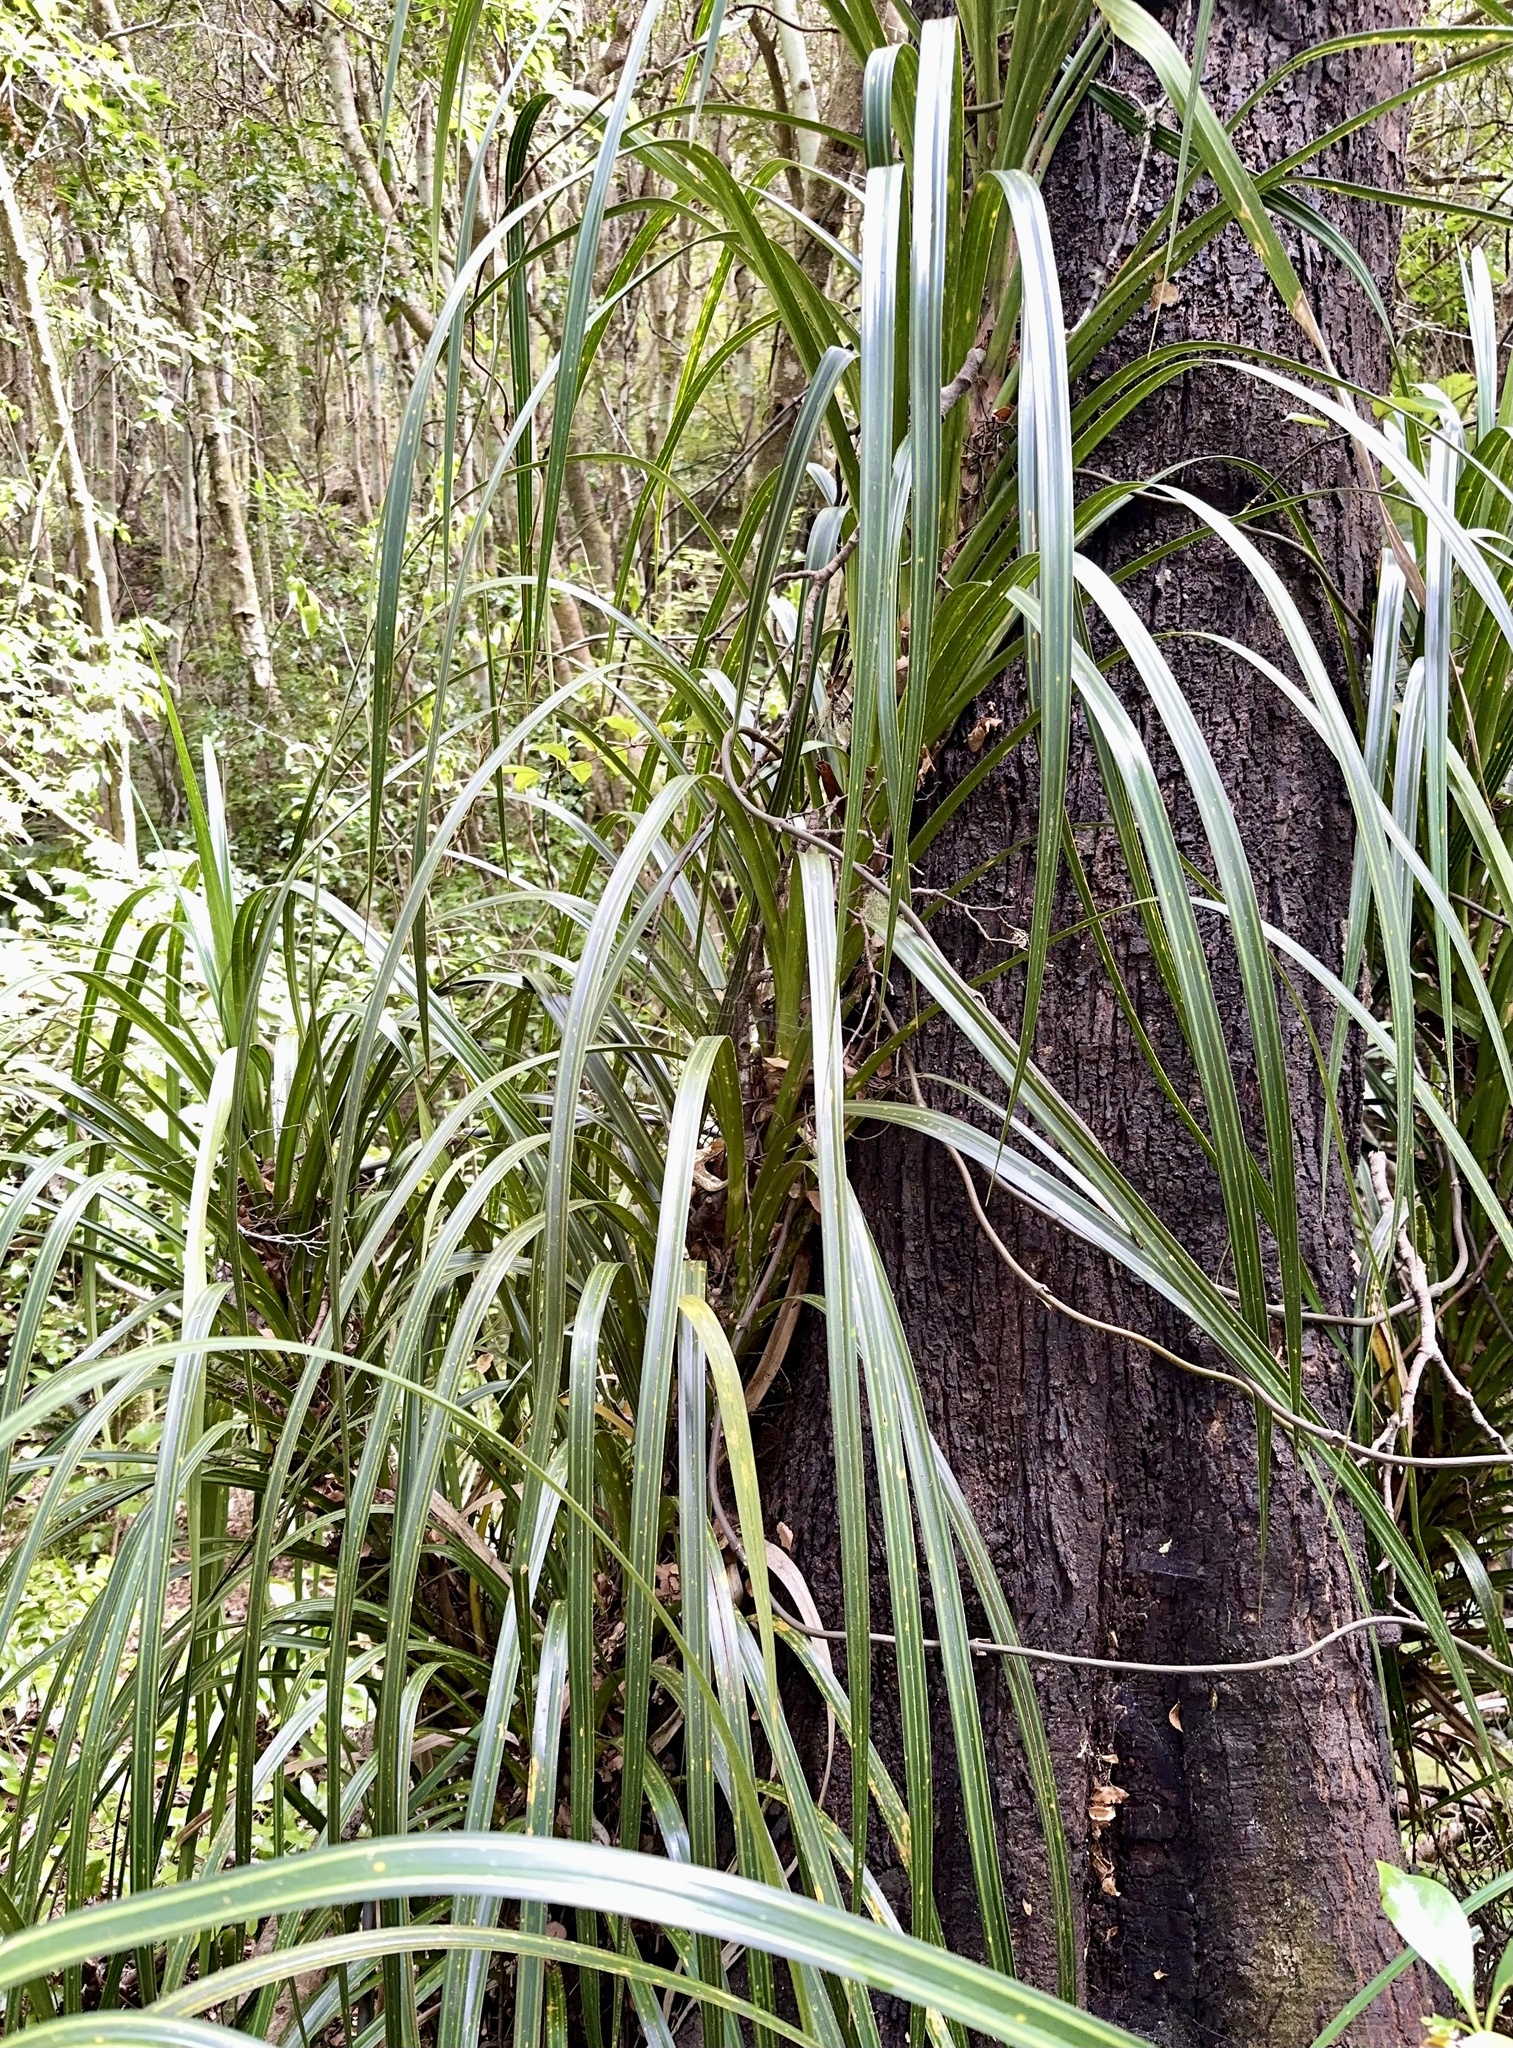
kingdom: Plantae
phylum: Tracheophyta
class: Liliopsida
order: Pandanales
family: Pandanaceae
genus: Freycinetia
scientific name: Freycinetia banksii
